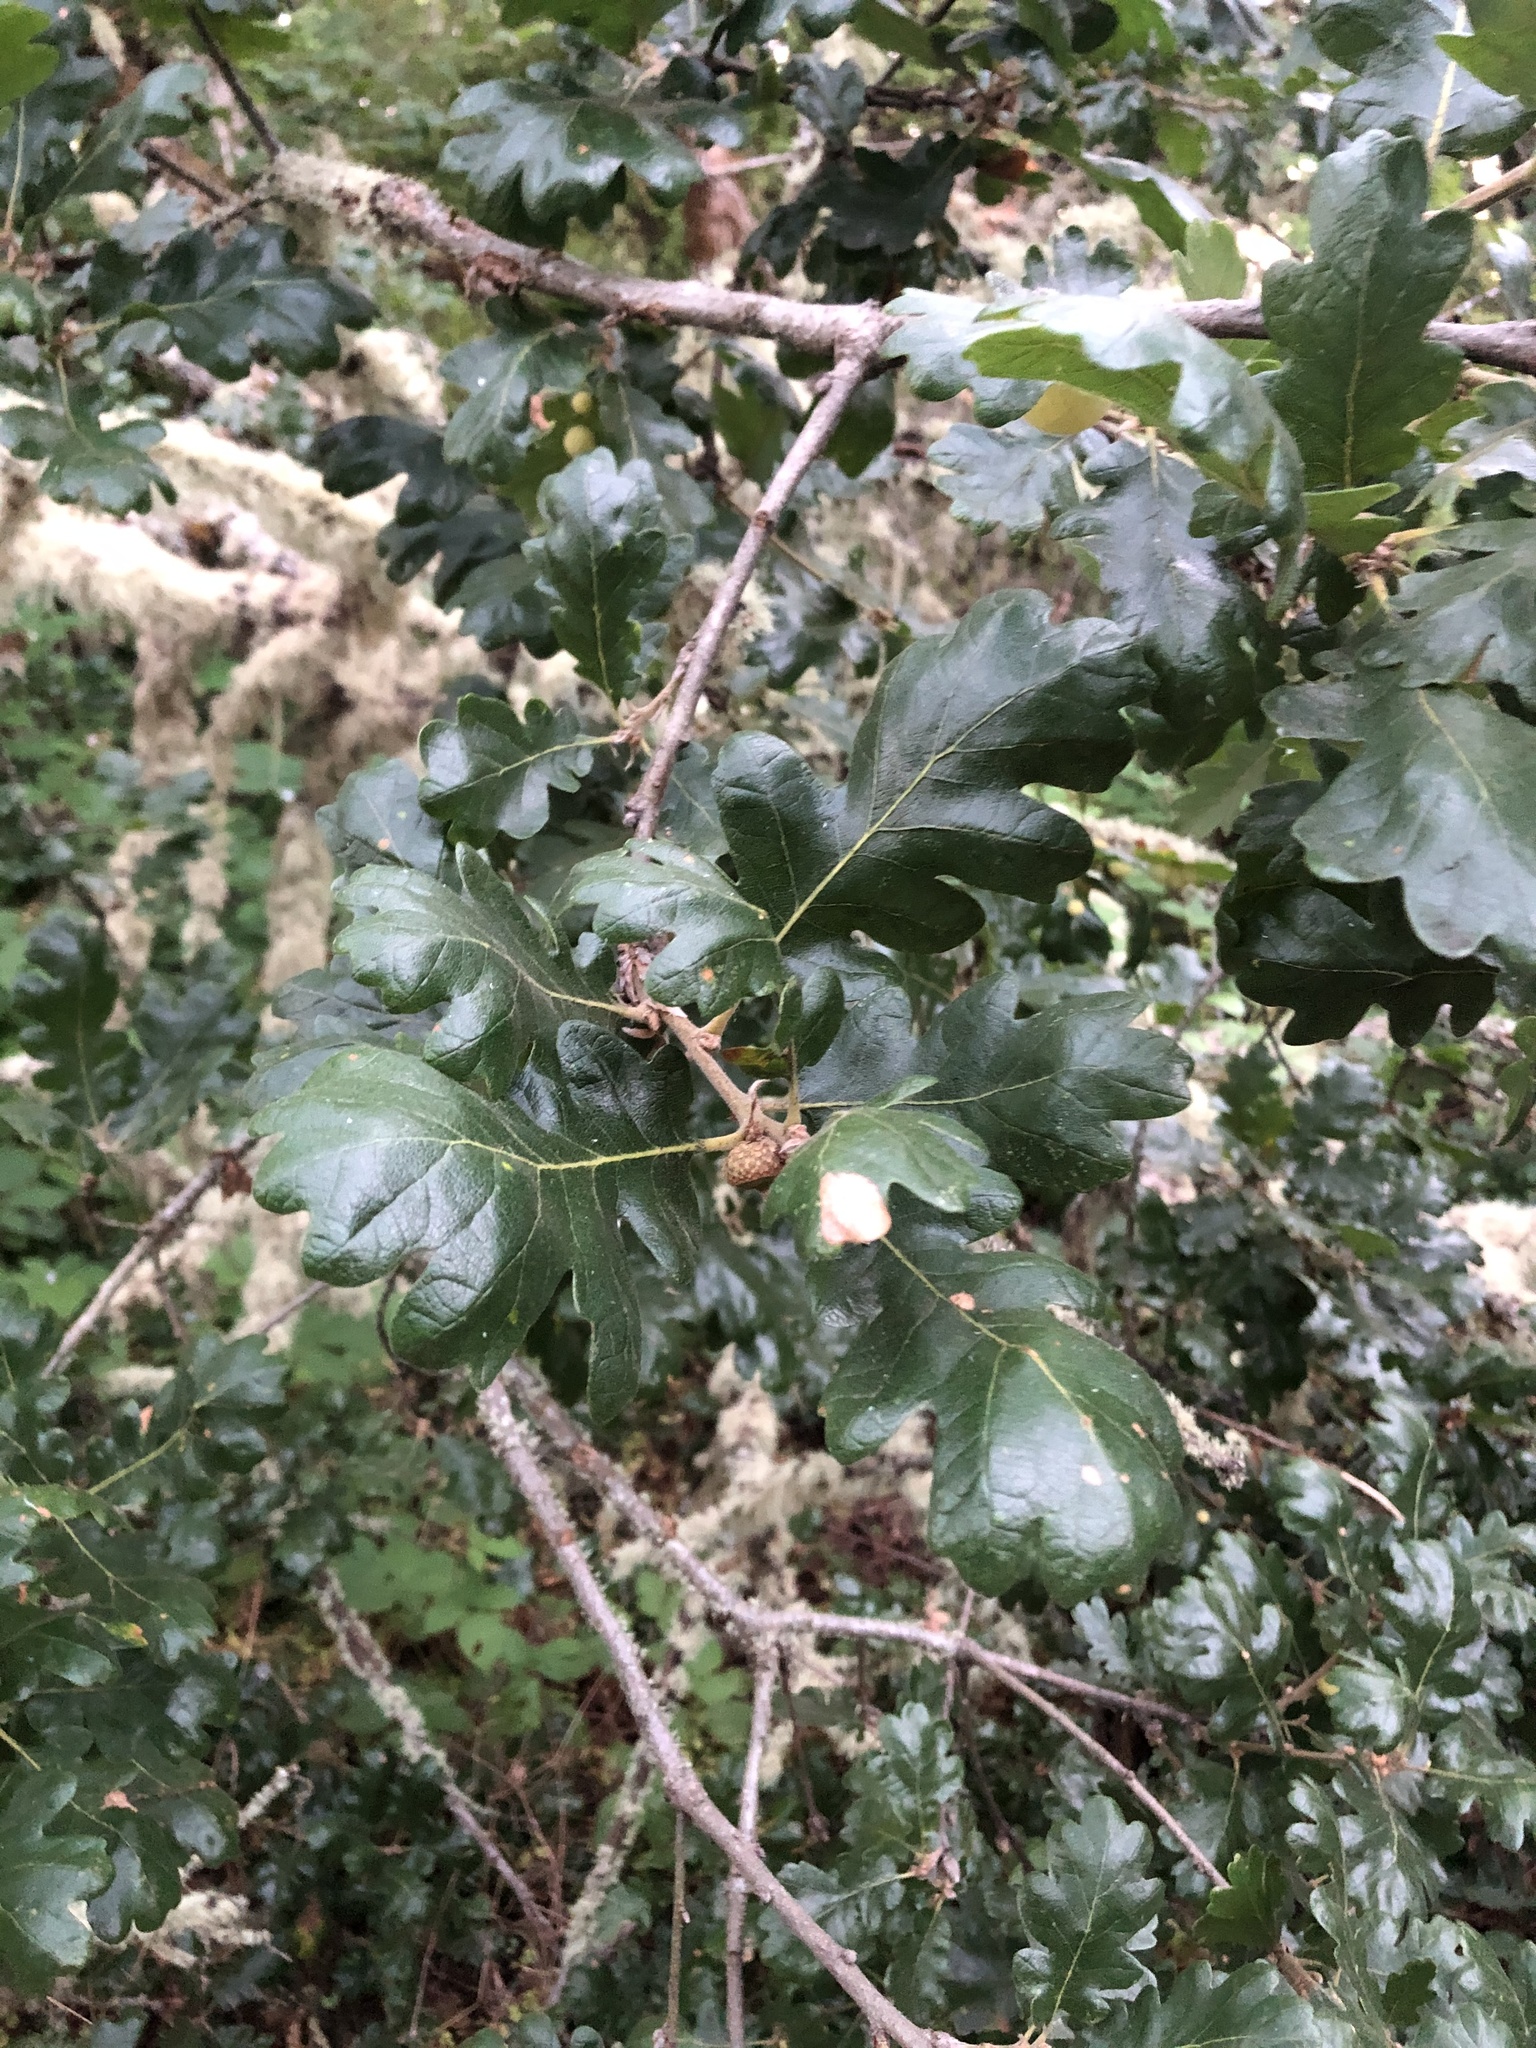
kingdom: Plantae
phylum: Tracheophyta
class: Magnoliopsida
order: Fagales
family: Fagaceae
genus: Quercus
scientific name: Quercus garryana
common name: Garry oak
